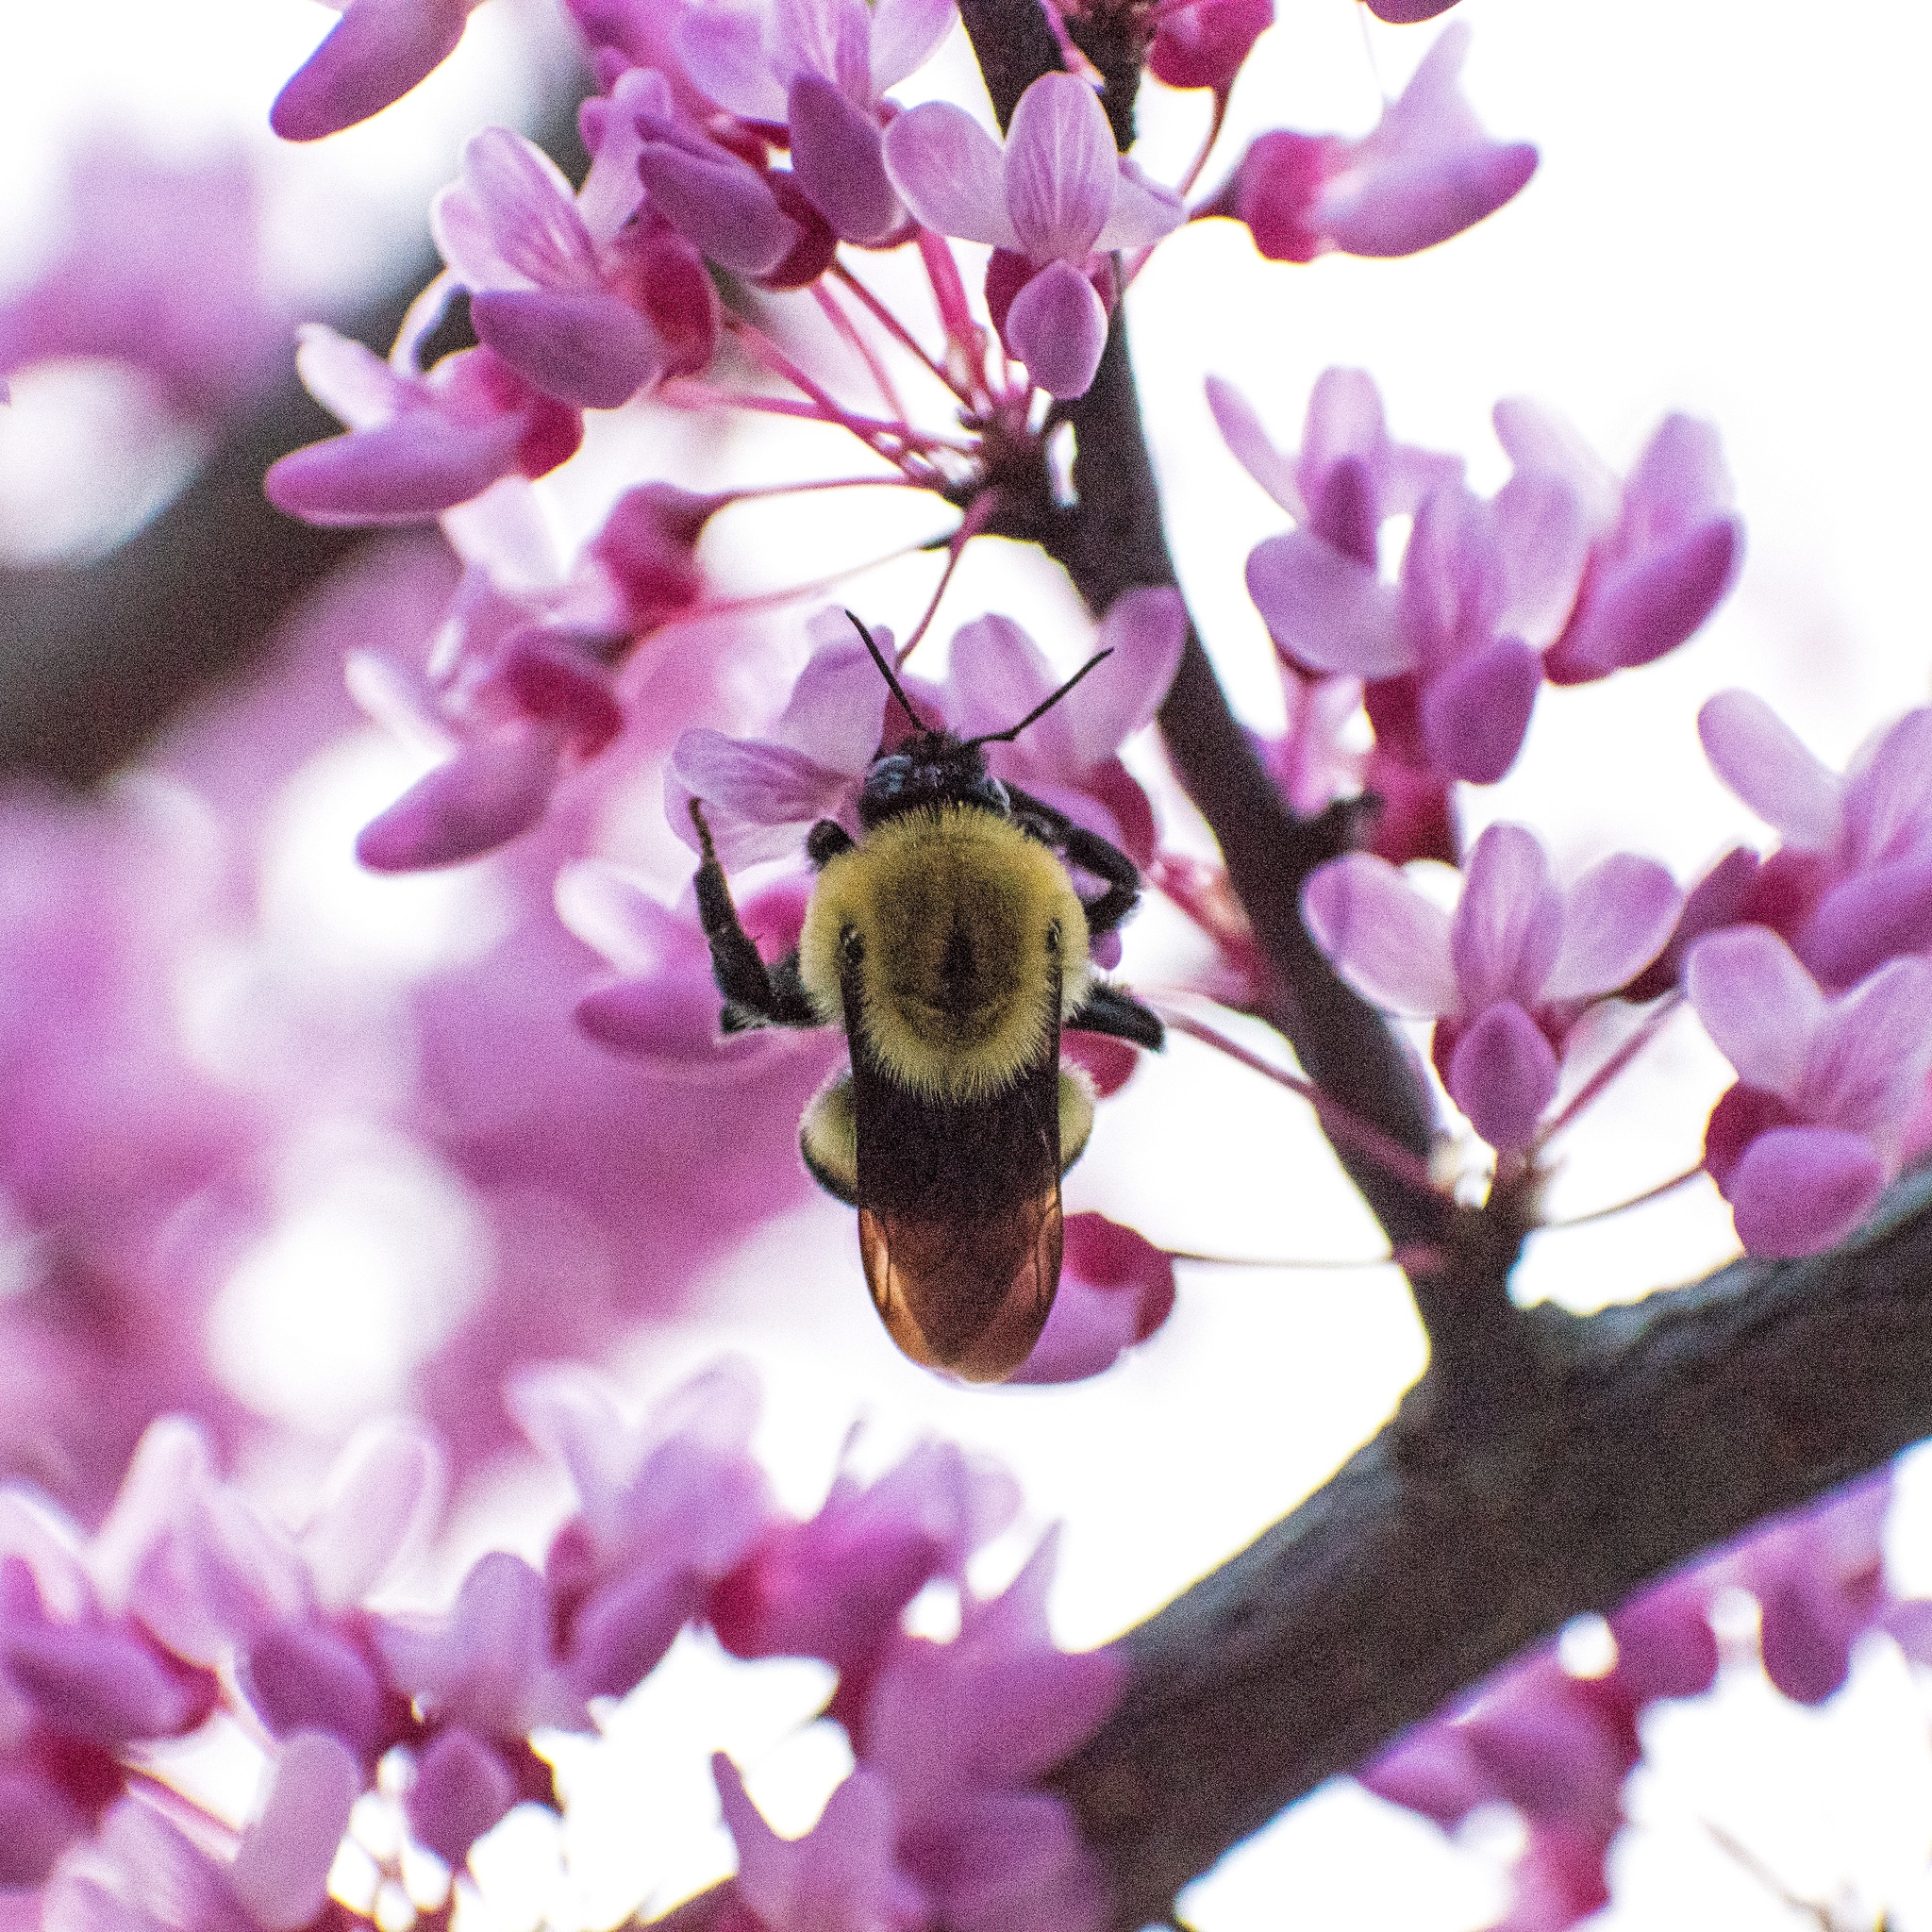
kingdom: Animalia
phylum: Arthropoda
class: Insecta
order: Hymenoptera
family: Apidae
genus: Bombus
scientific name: Bombus griseocollis
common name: Brown-belted bumble bee
